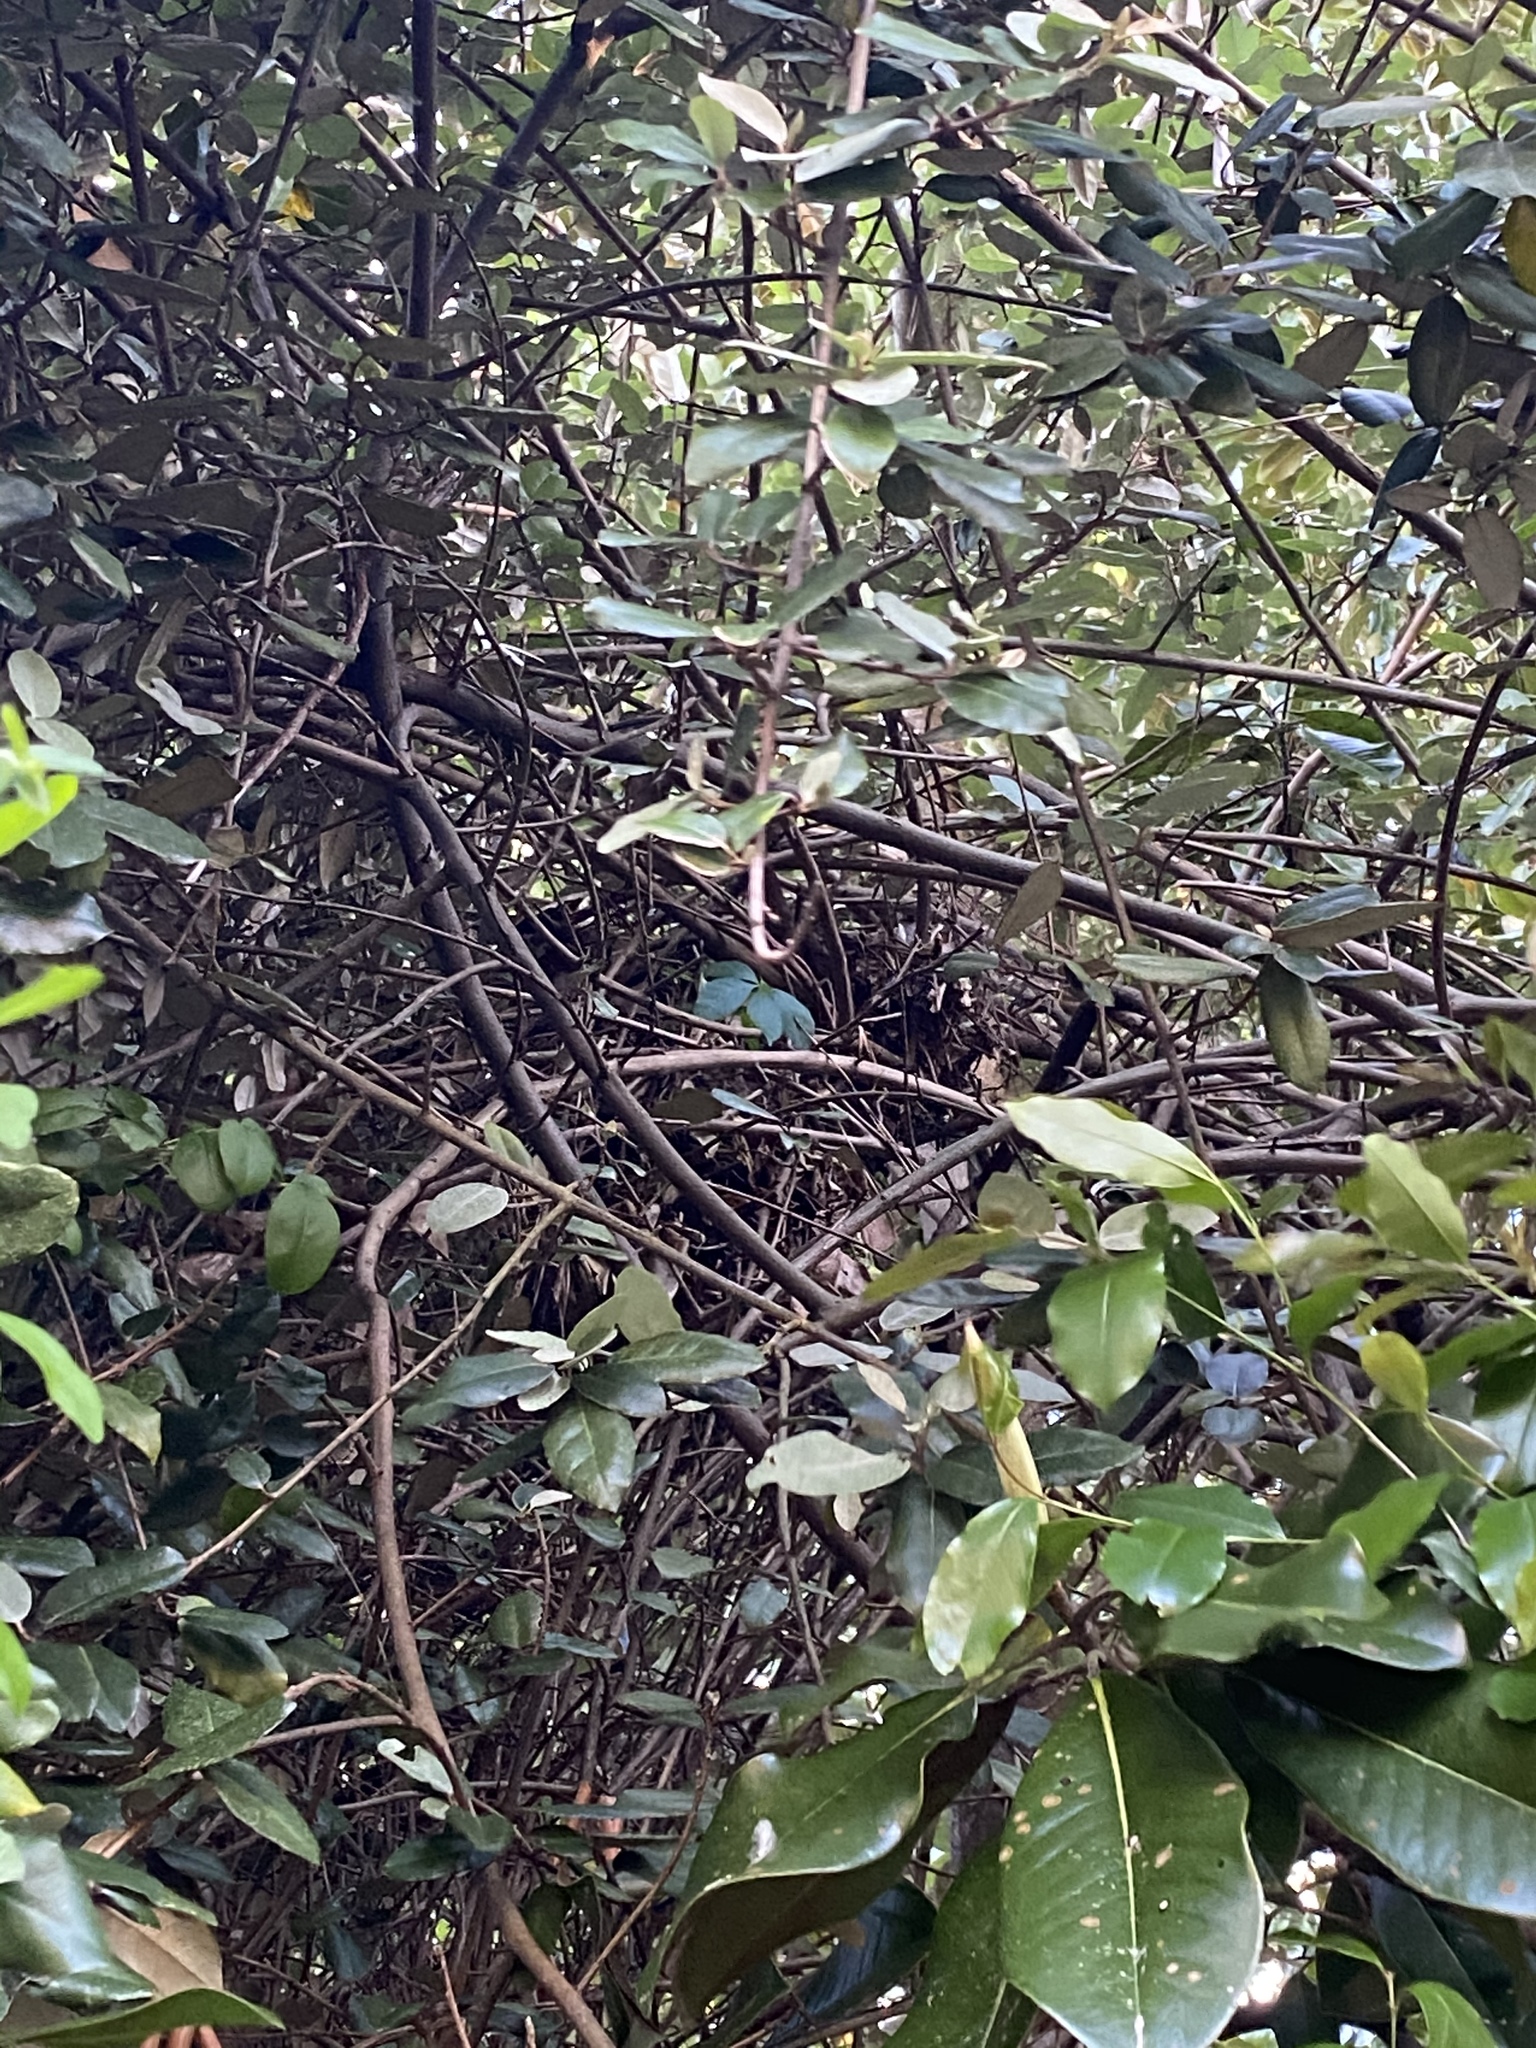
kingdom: Animalia
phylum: Chordata
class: Aves
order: Passeriformes
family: Mimidae
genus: Dumetella
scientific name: Dumetella carolinensis
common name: Gray catbird
